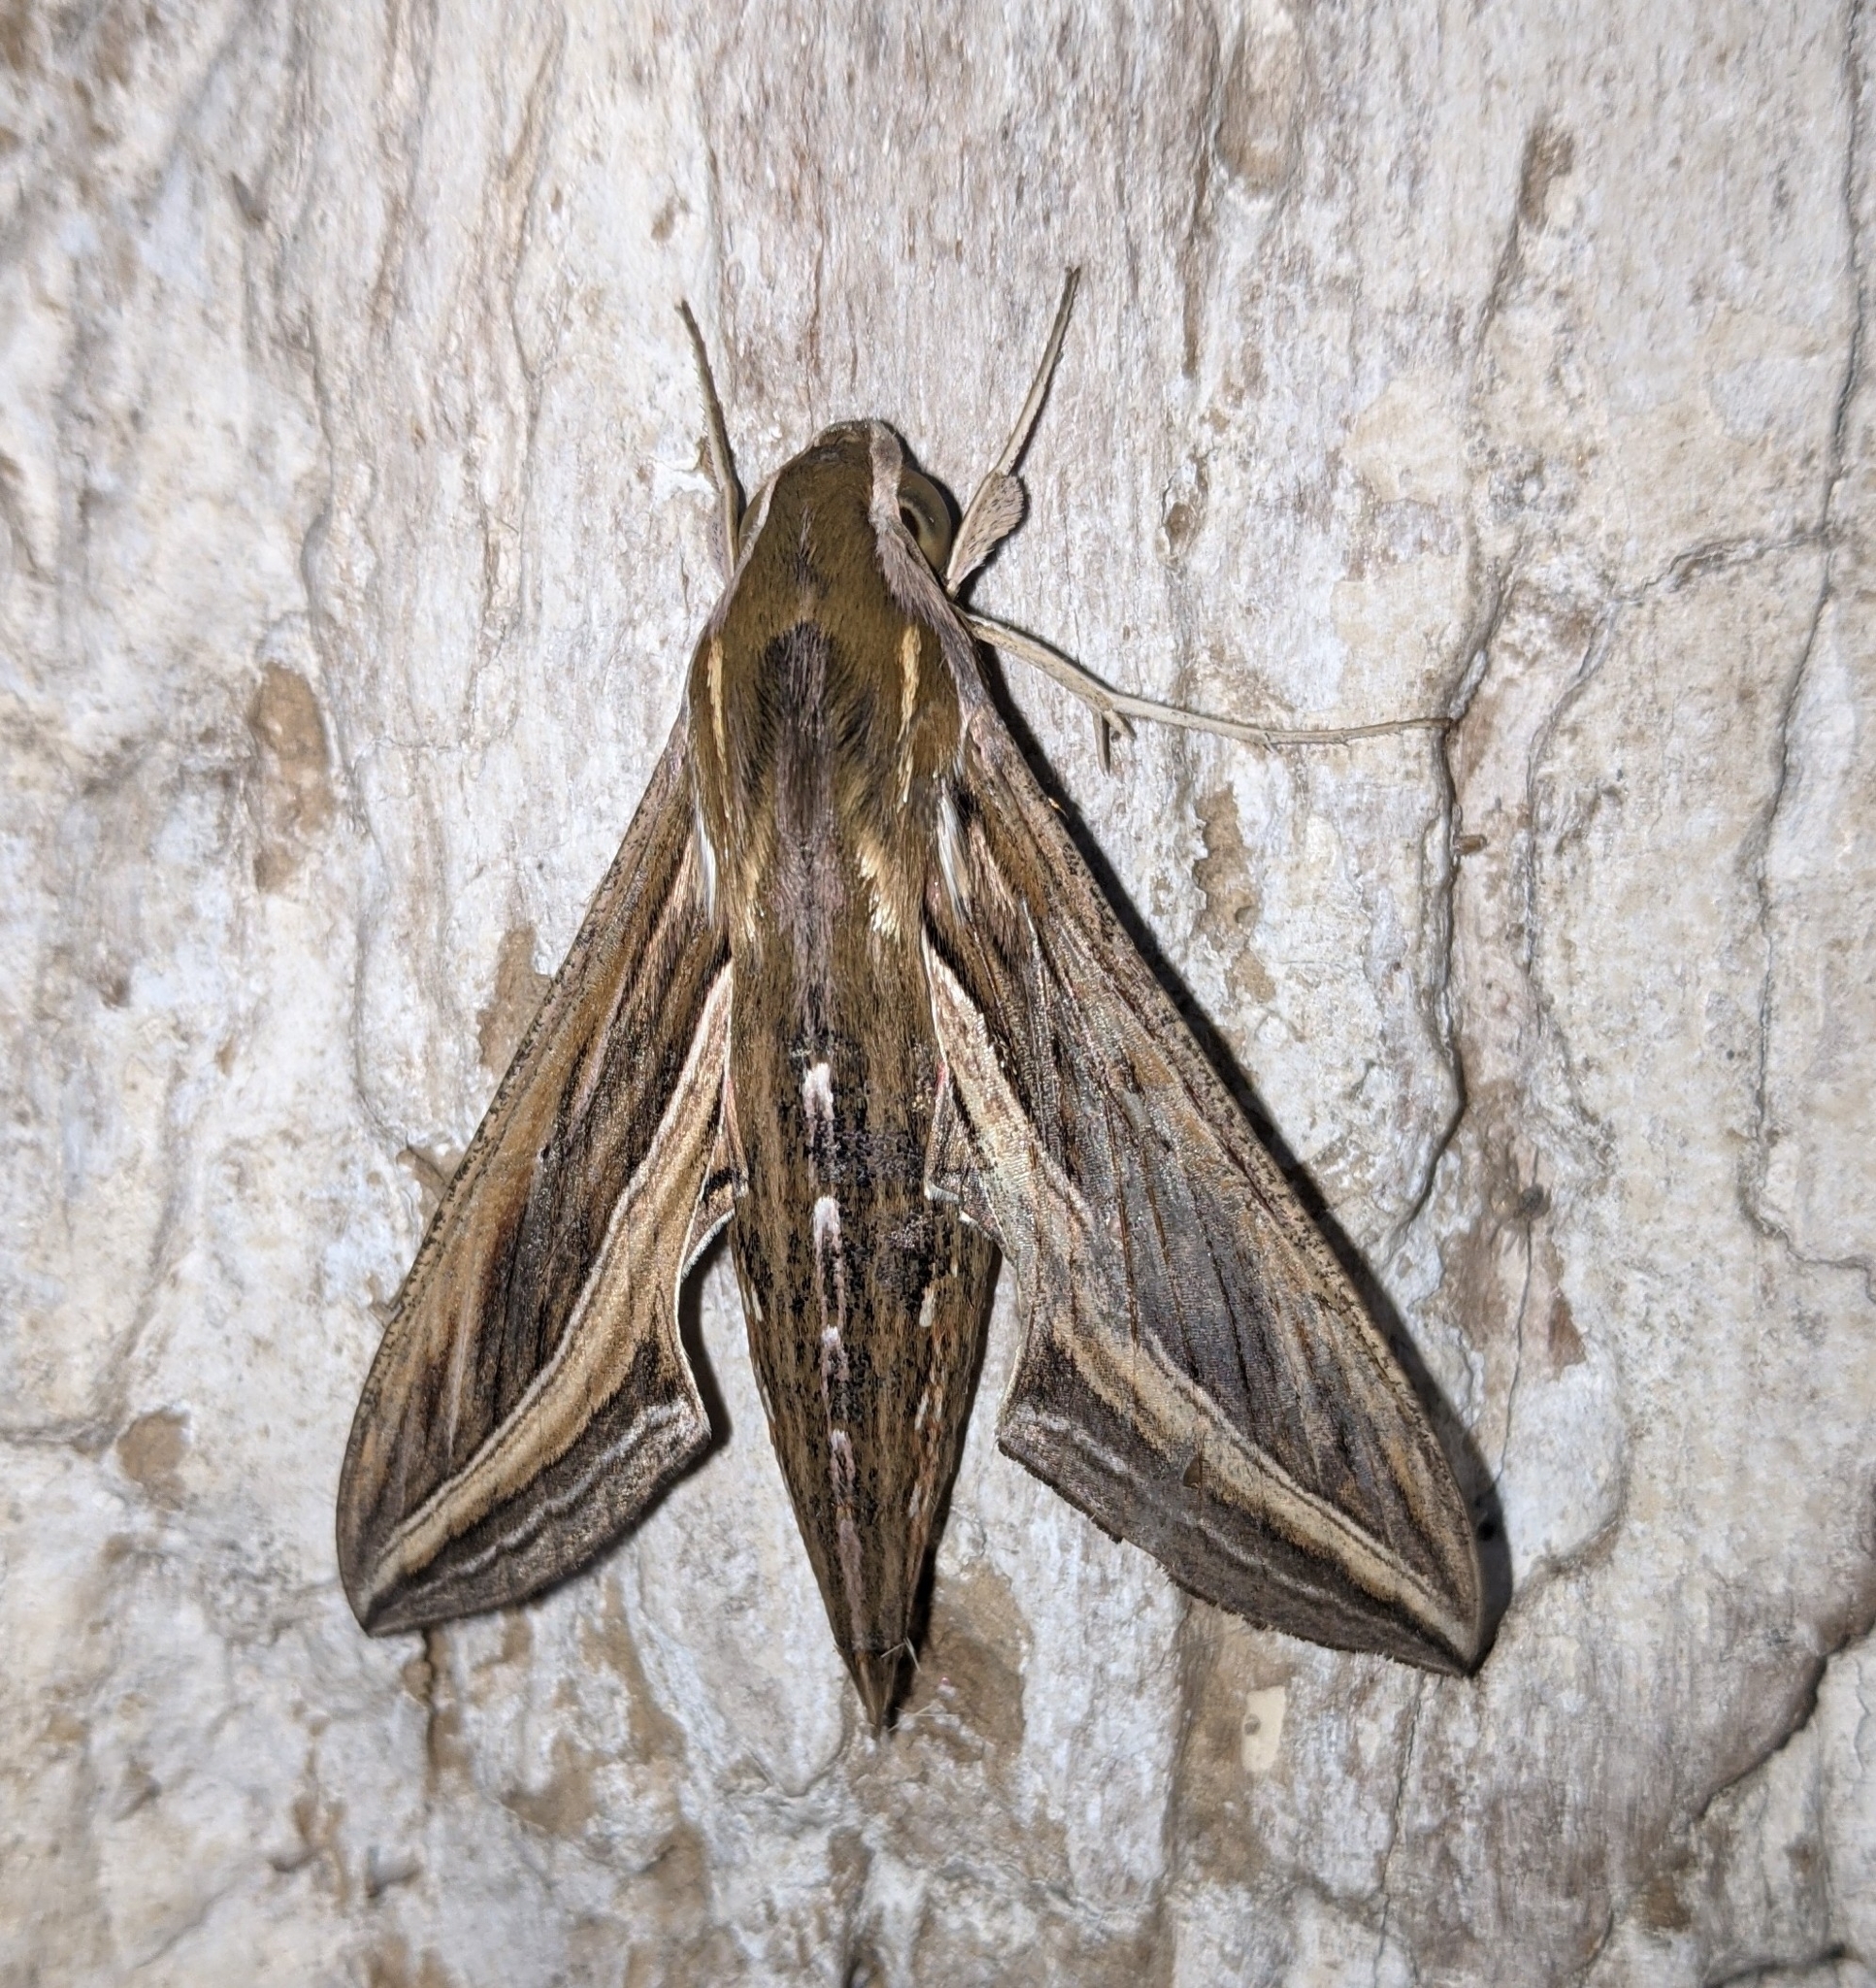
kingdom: Animalia
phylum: Arthropoda
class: Insecta
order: Lepidoptera
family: Sphingidae
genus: Hippotion
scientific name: Hippotion celerio
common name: Silver-striped hawk-moth
